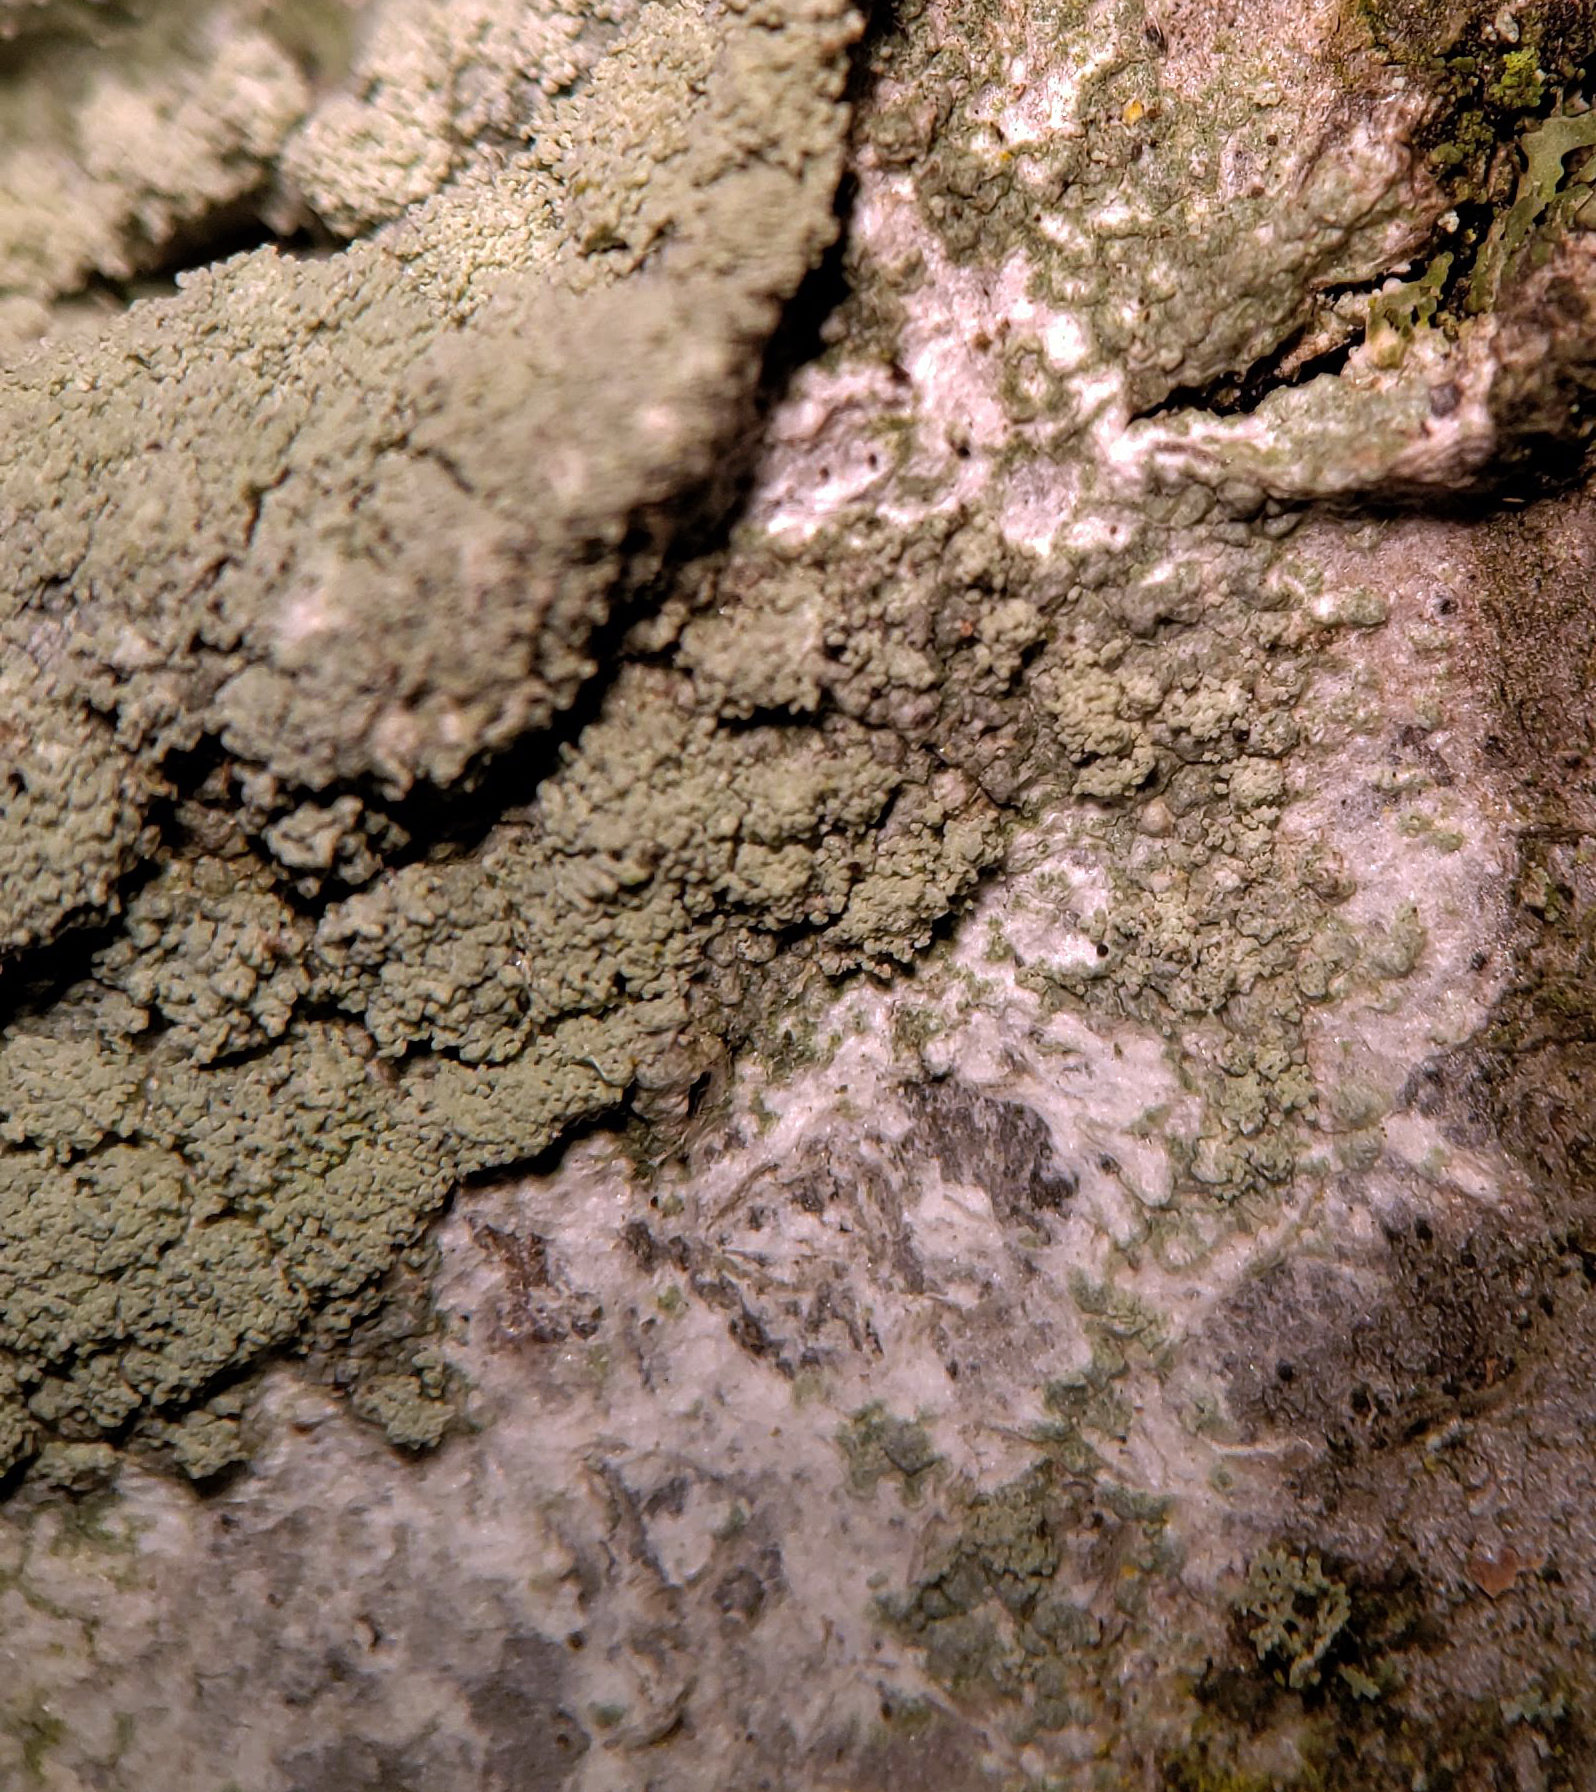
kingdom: Fungi
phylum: Ascomycota
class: Lecanoromycetes
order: Pertusariales
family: Ochrolechiaceae
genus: Ochrolechia
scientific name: Ochrolechia androgyna
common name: Powdery saucer lichen
